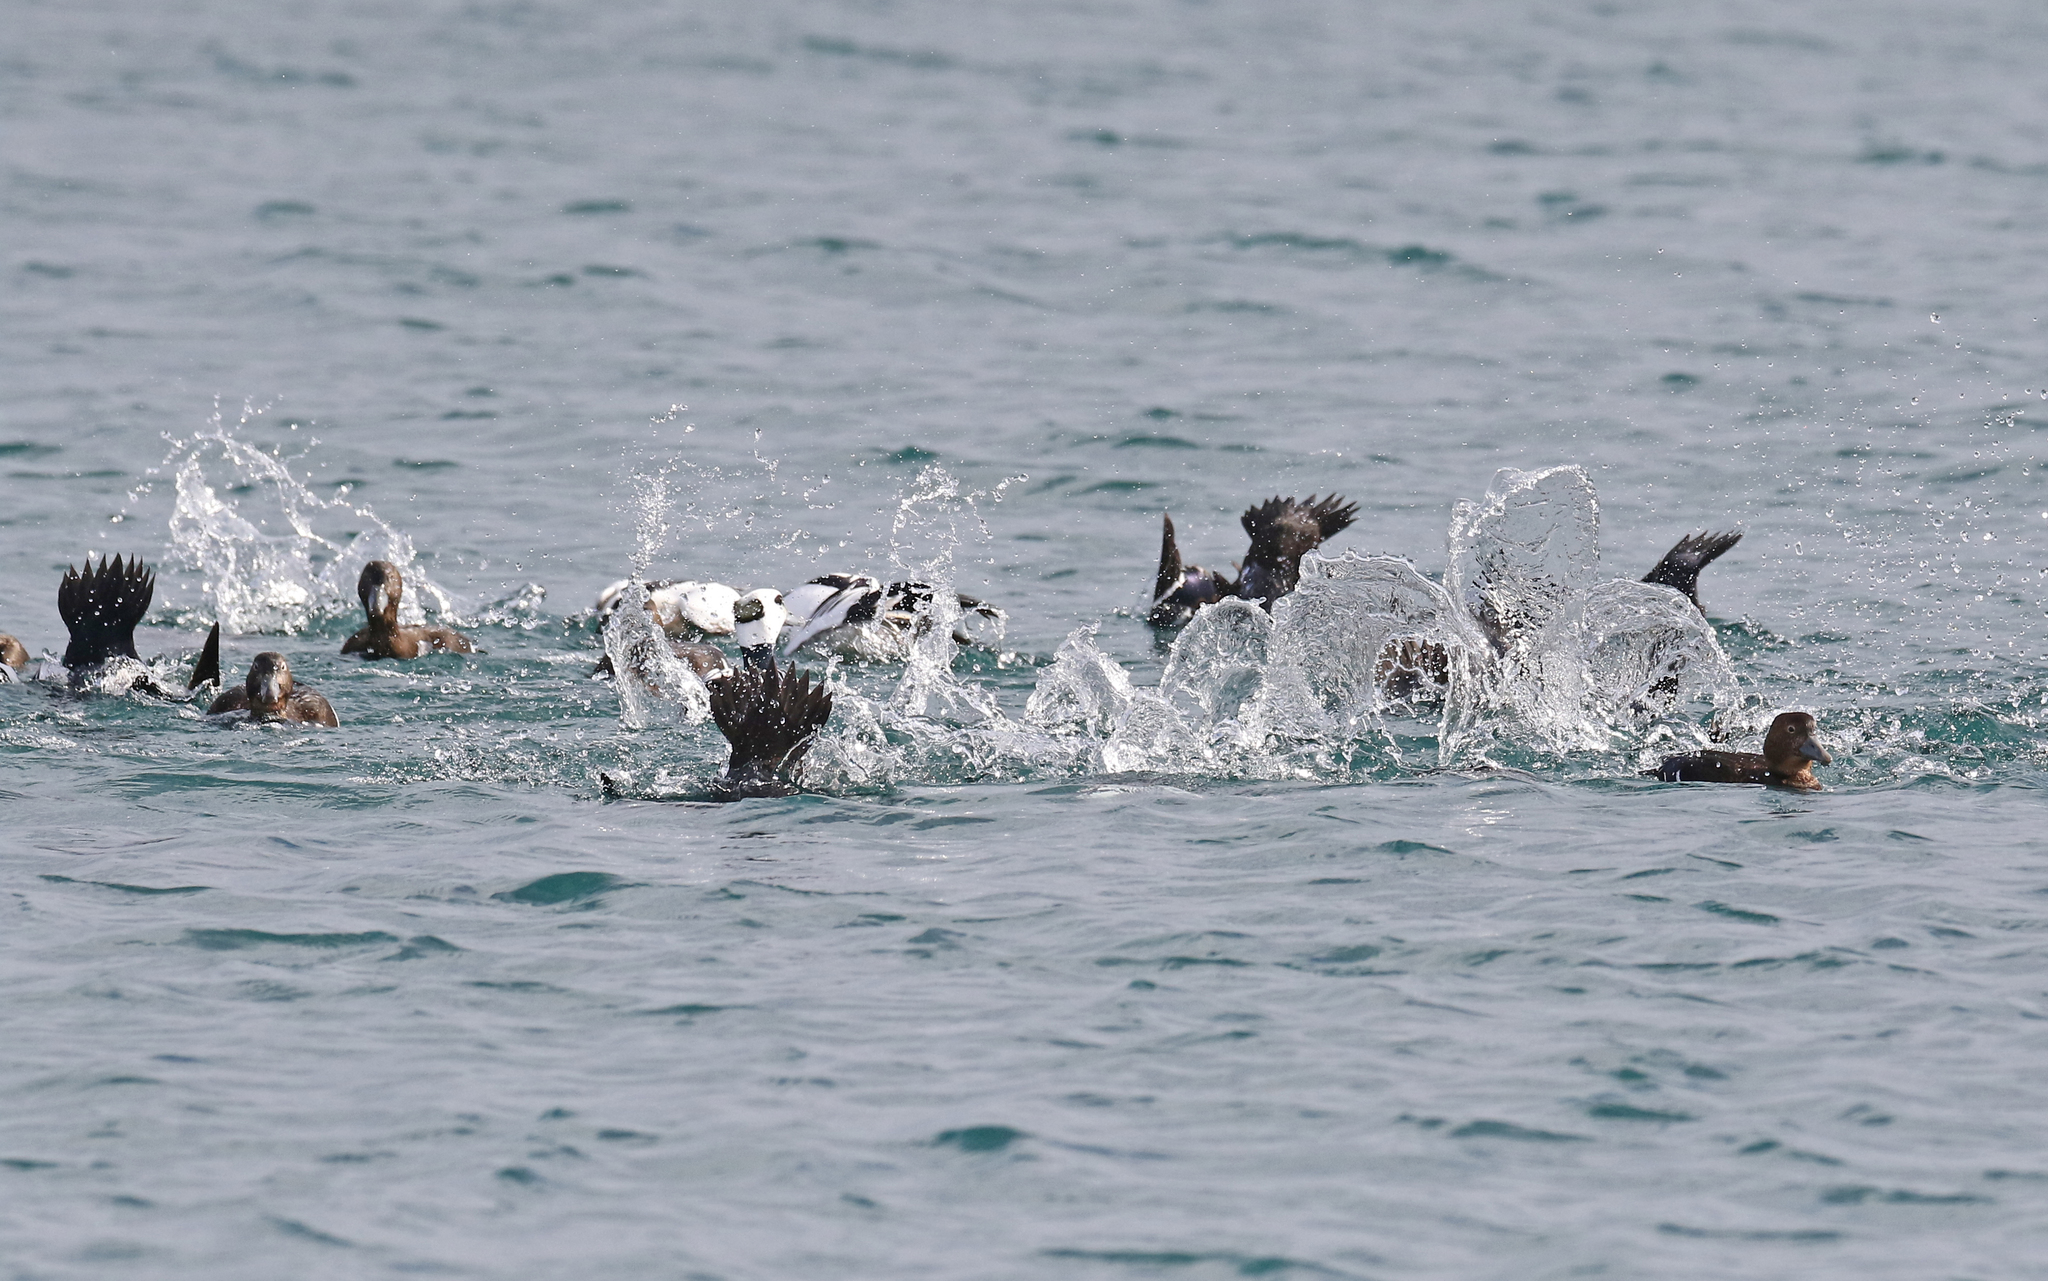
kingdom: Animalia
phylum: Chordata
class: Aves
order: Anseriformes
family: Anatidae
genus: Polysticta
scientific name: Polysticta stelleri
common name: Steller's eider
